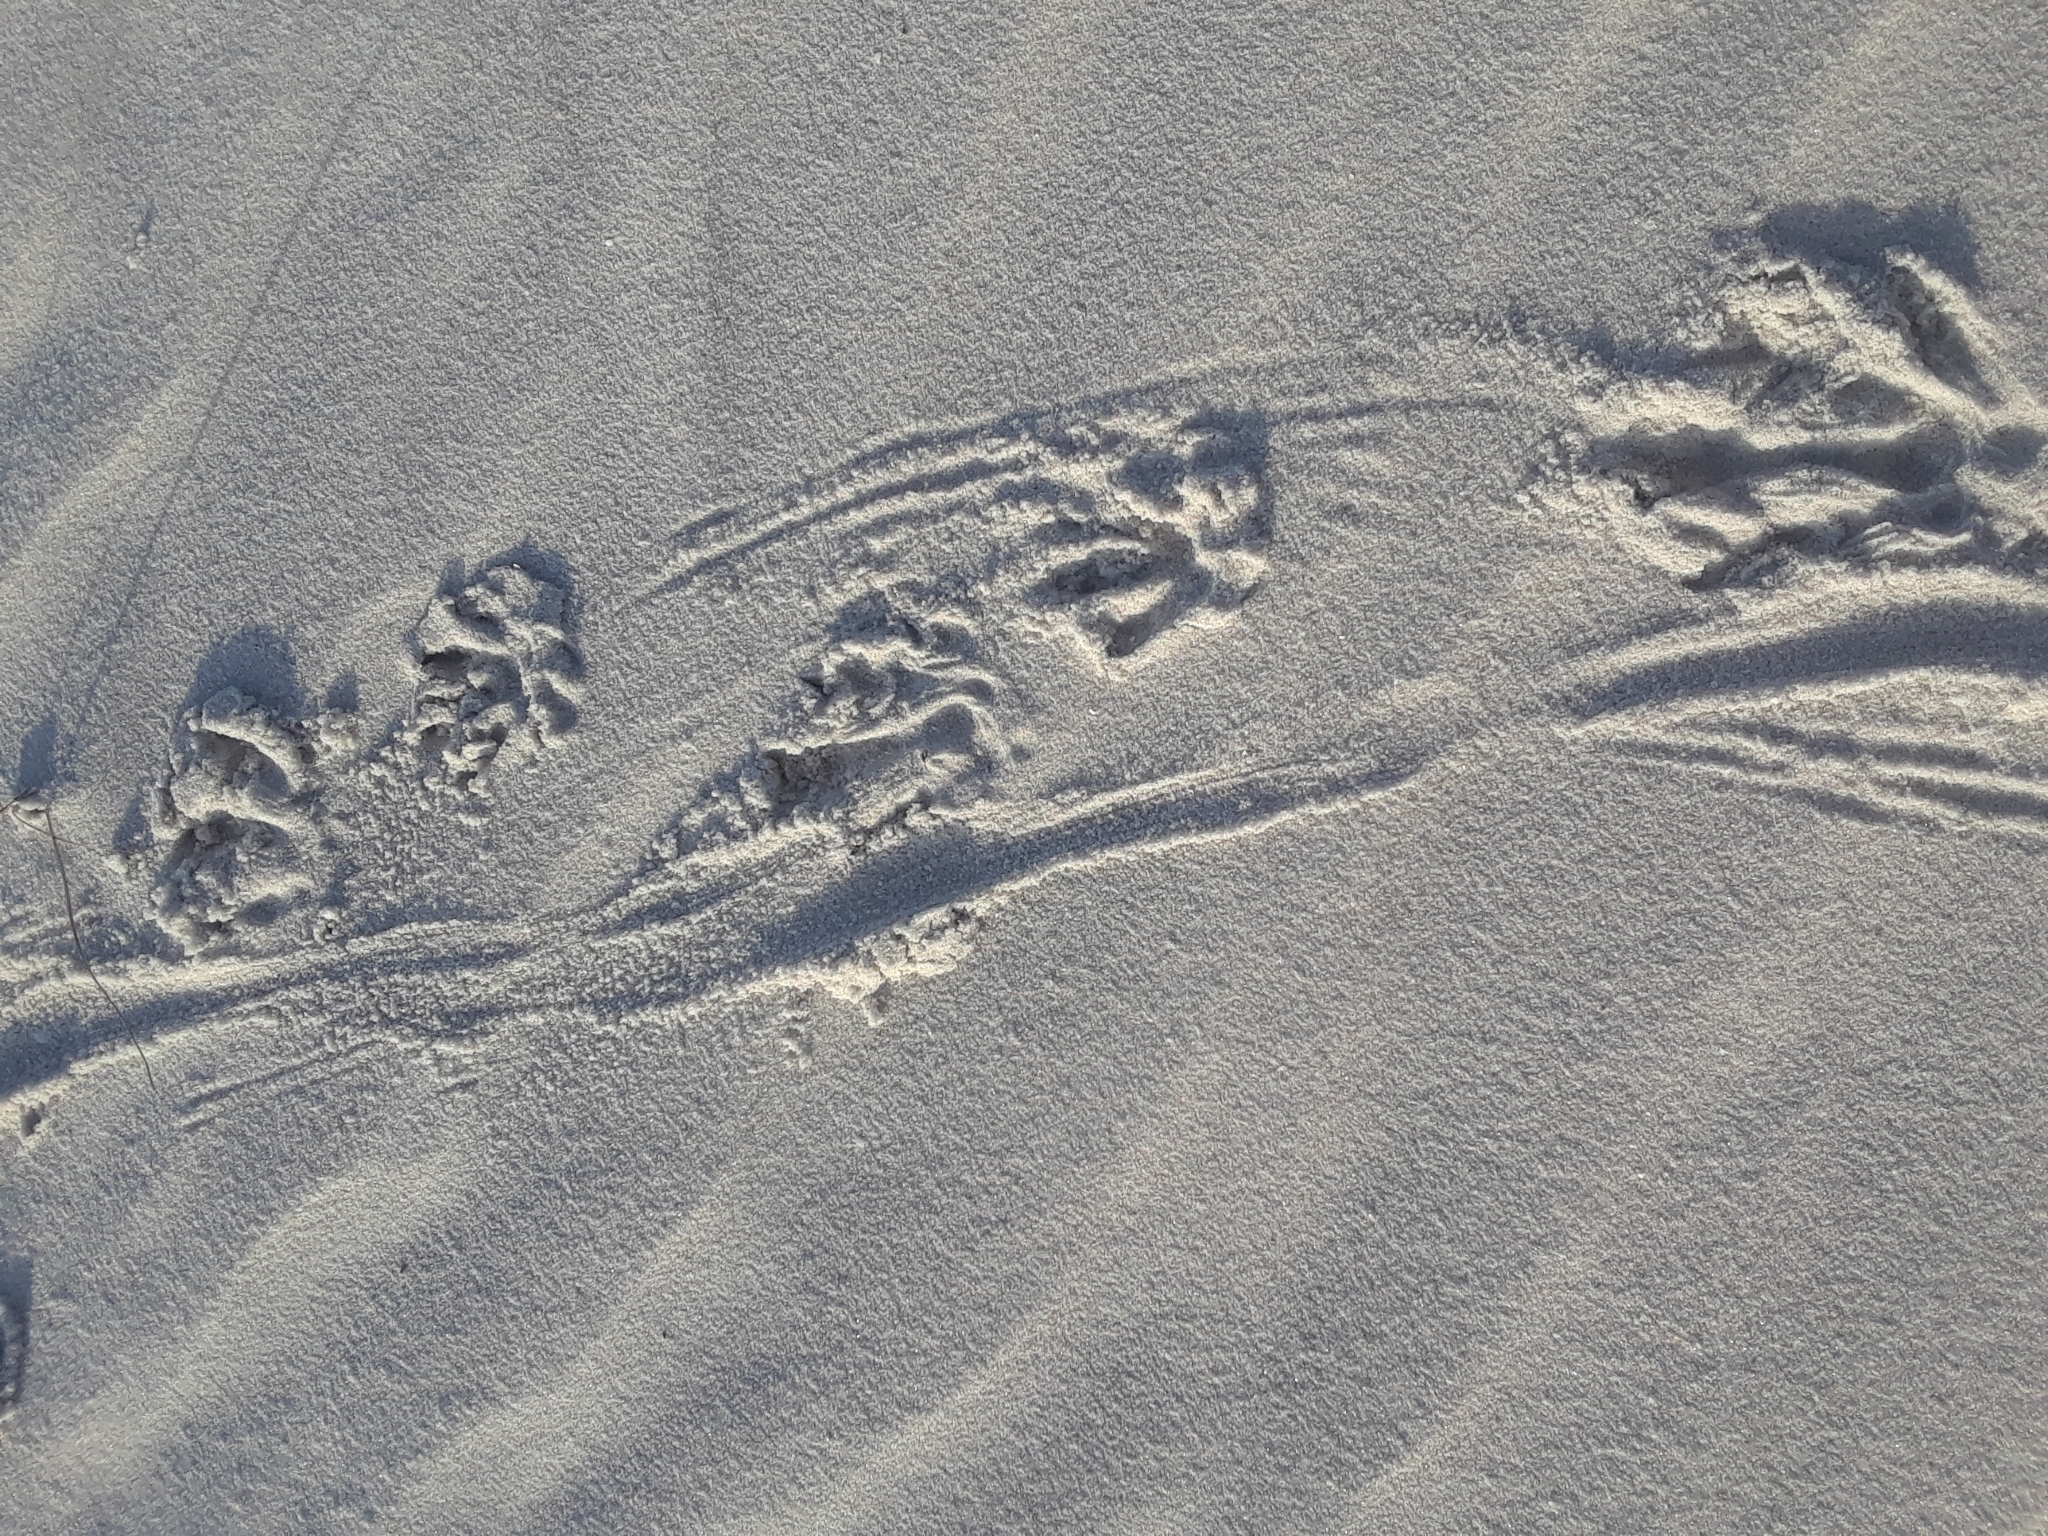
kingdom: Animalia
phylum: Chordata
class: Mammalia
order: Rodentia
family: Myocastoridae
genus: Myocastor
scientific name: Myocastor coypus
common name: Coypu
